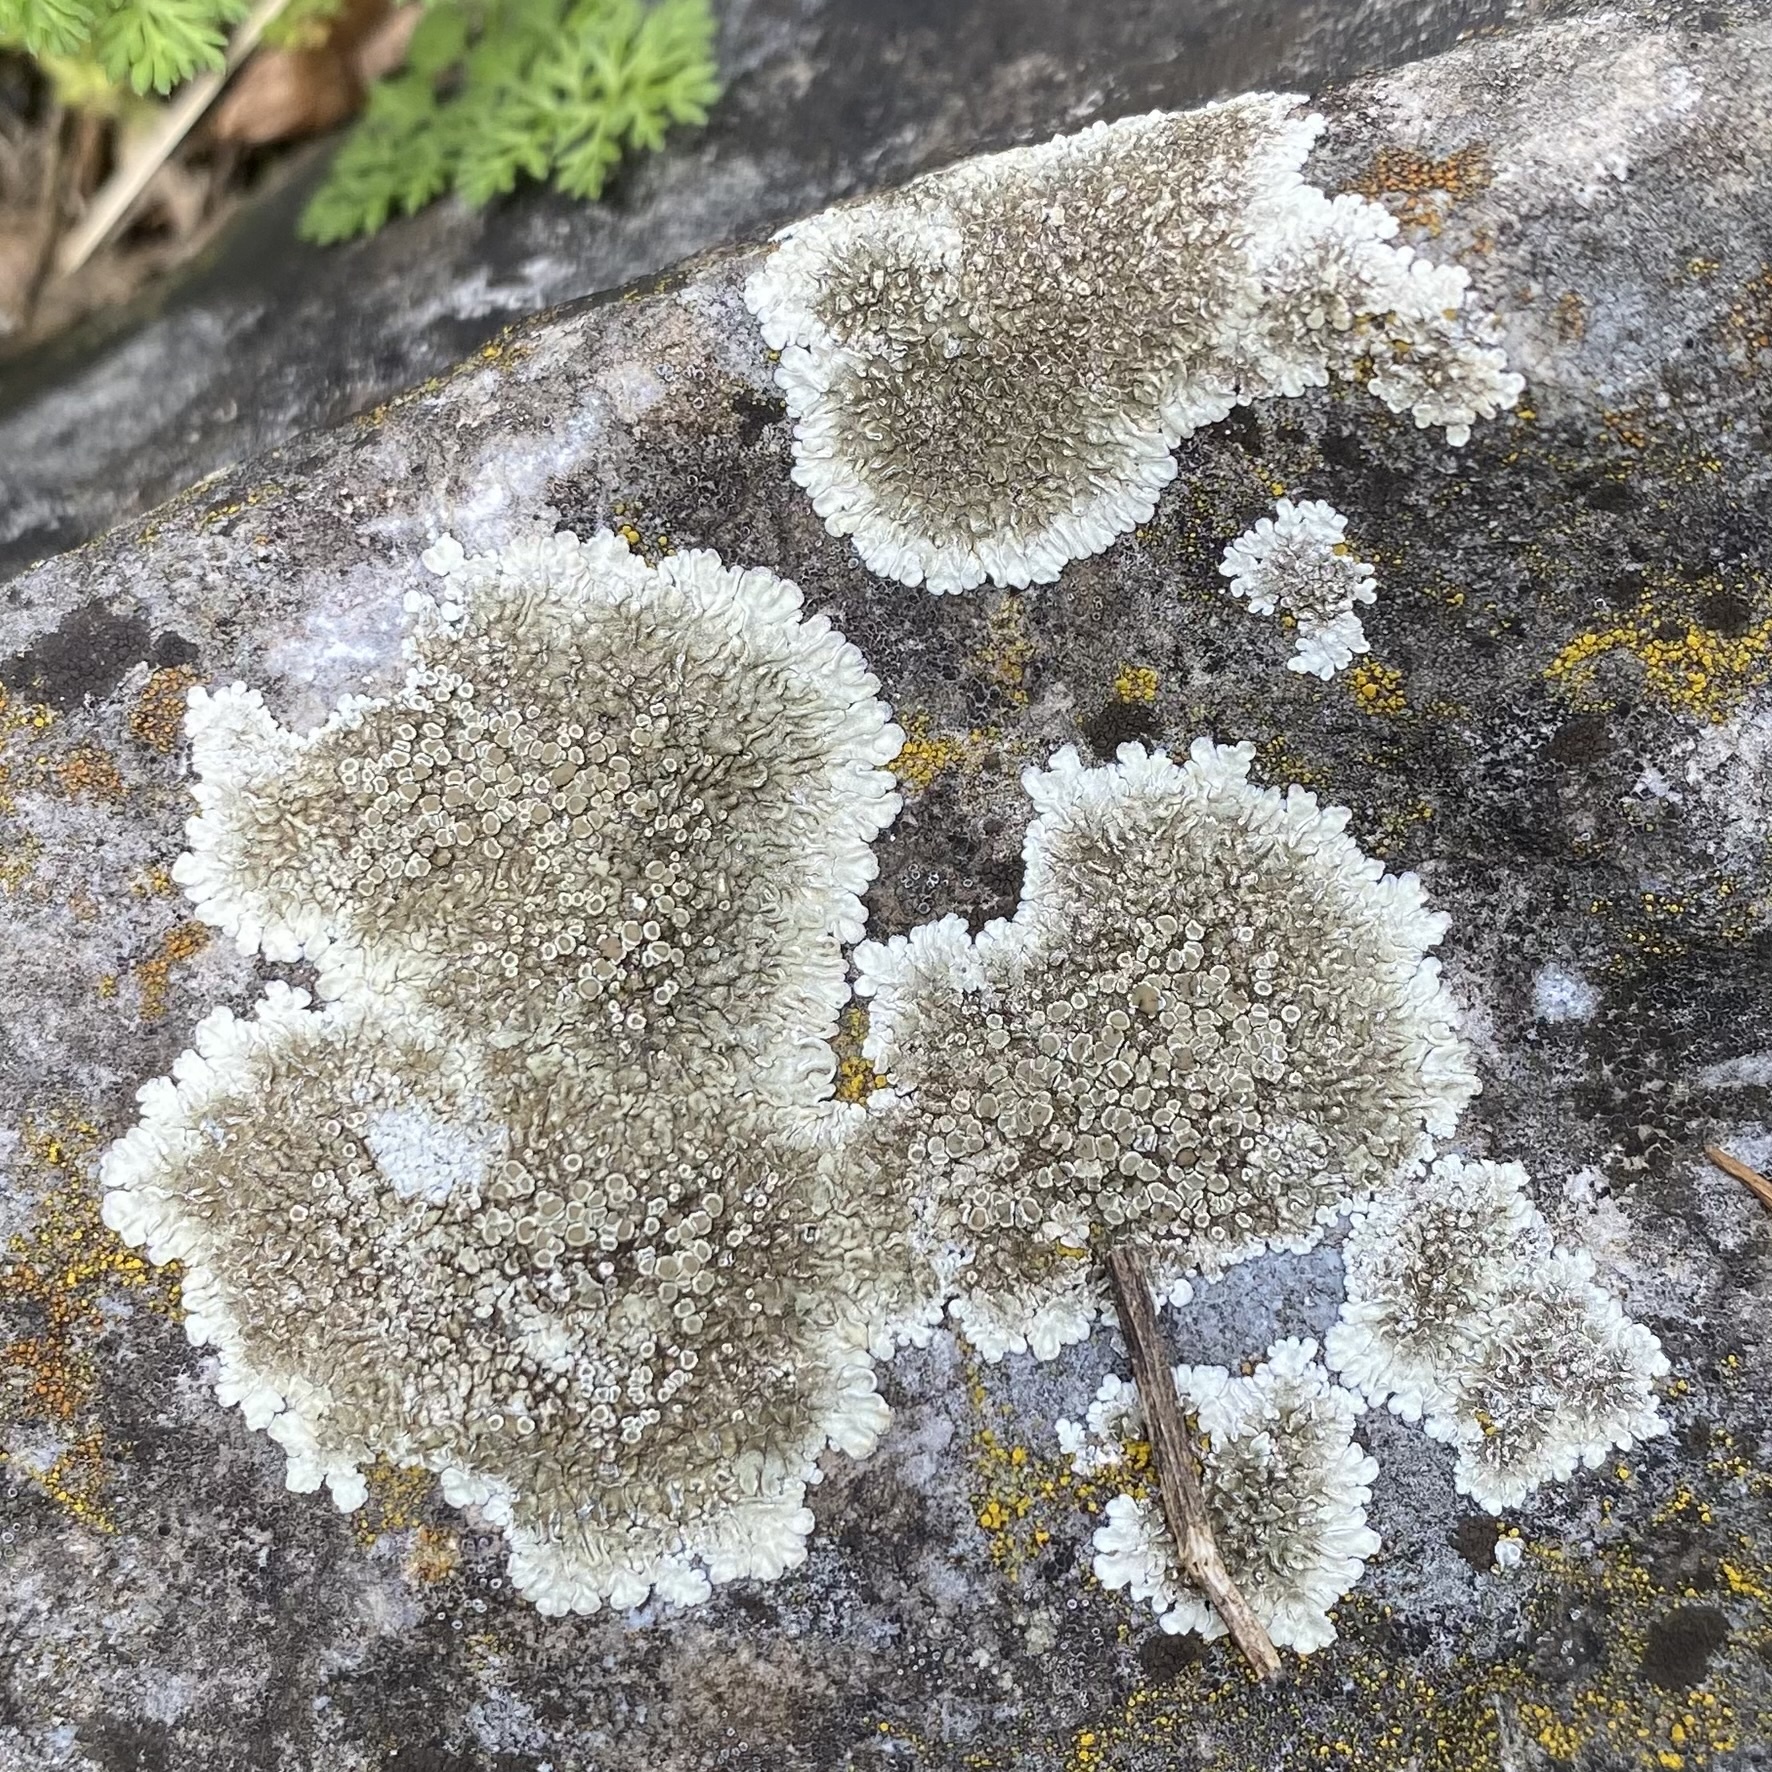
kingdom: Fungi
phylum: Ascomycota
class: Lecanoromycetes
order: Lecanorales
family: Lecanoraceae
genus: Protoparmeliopsis
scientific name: Protoparmeliopsis muralis
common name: Stonewall rim lichen
